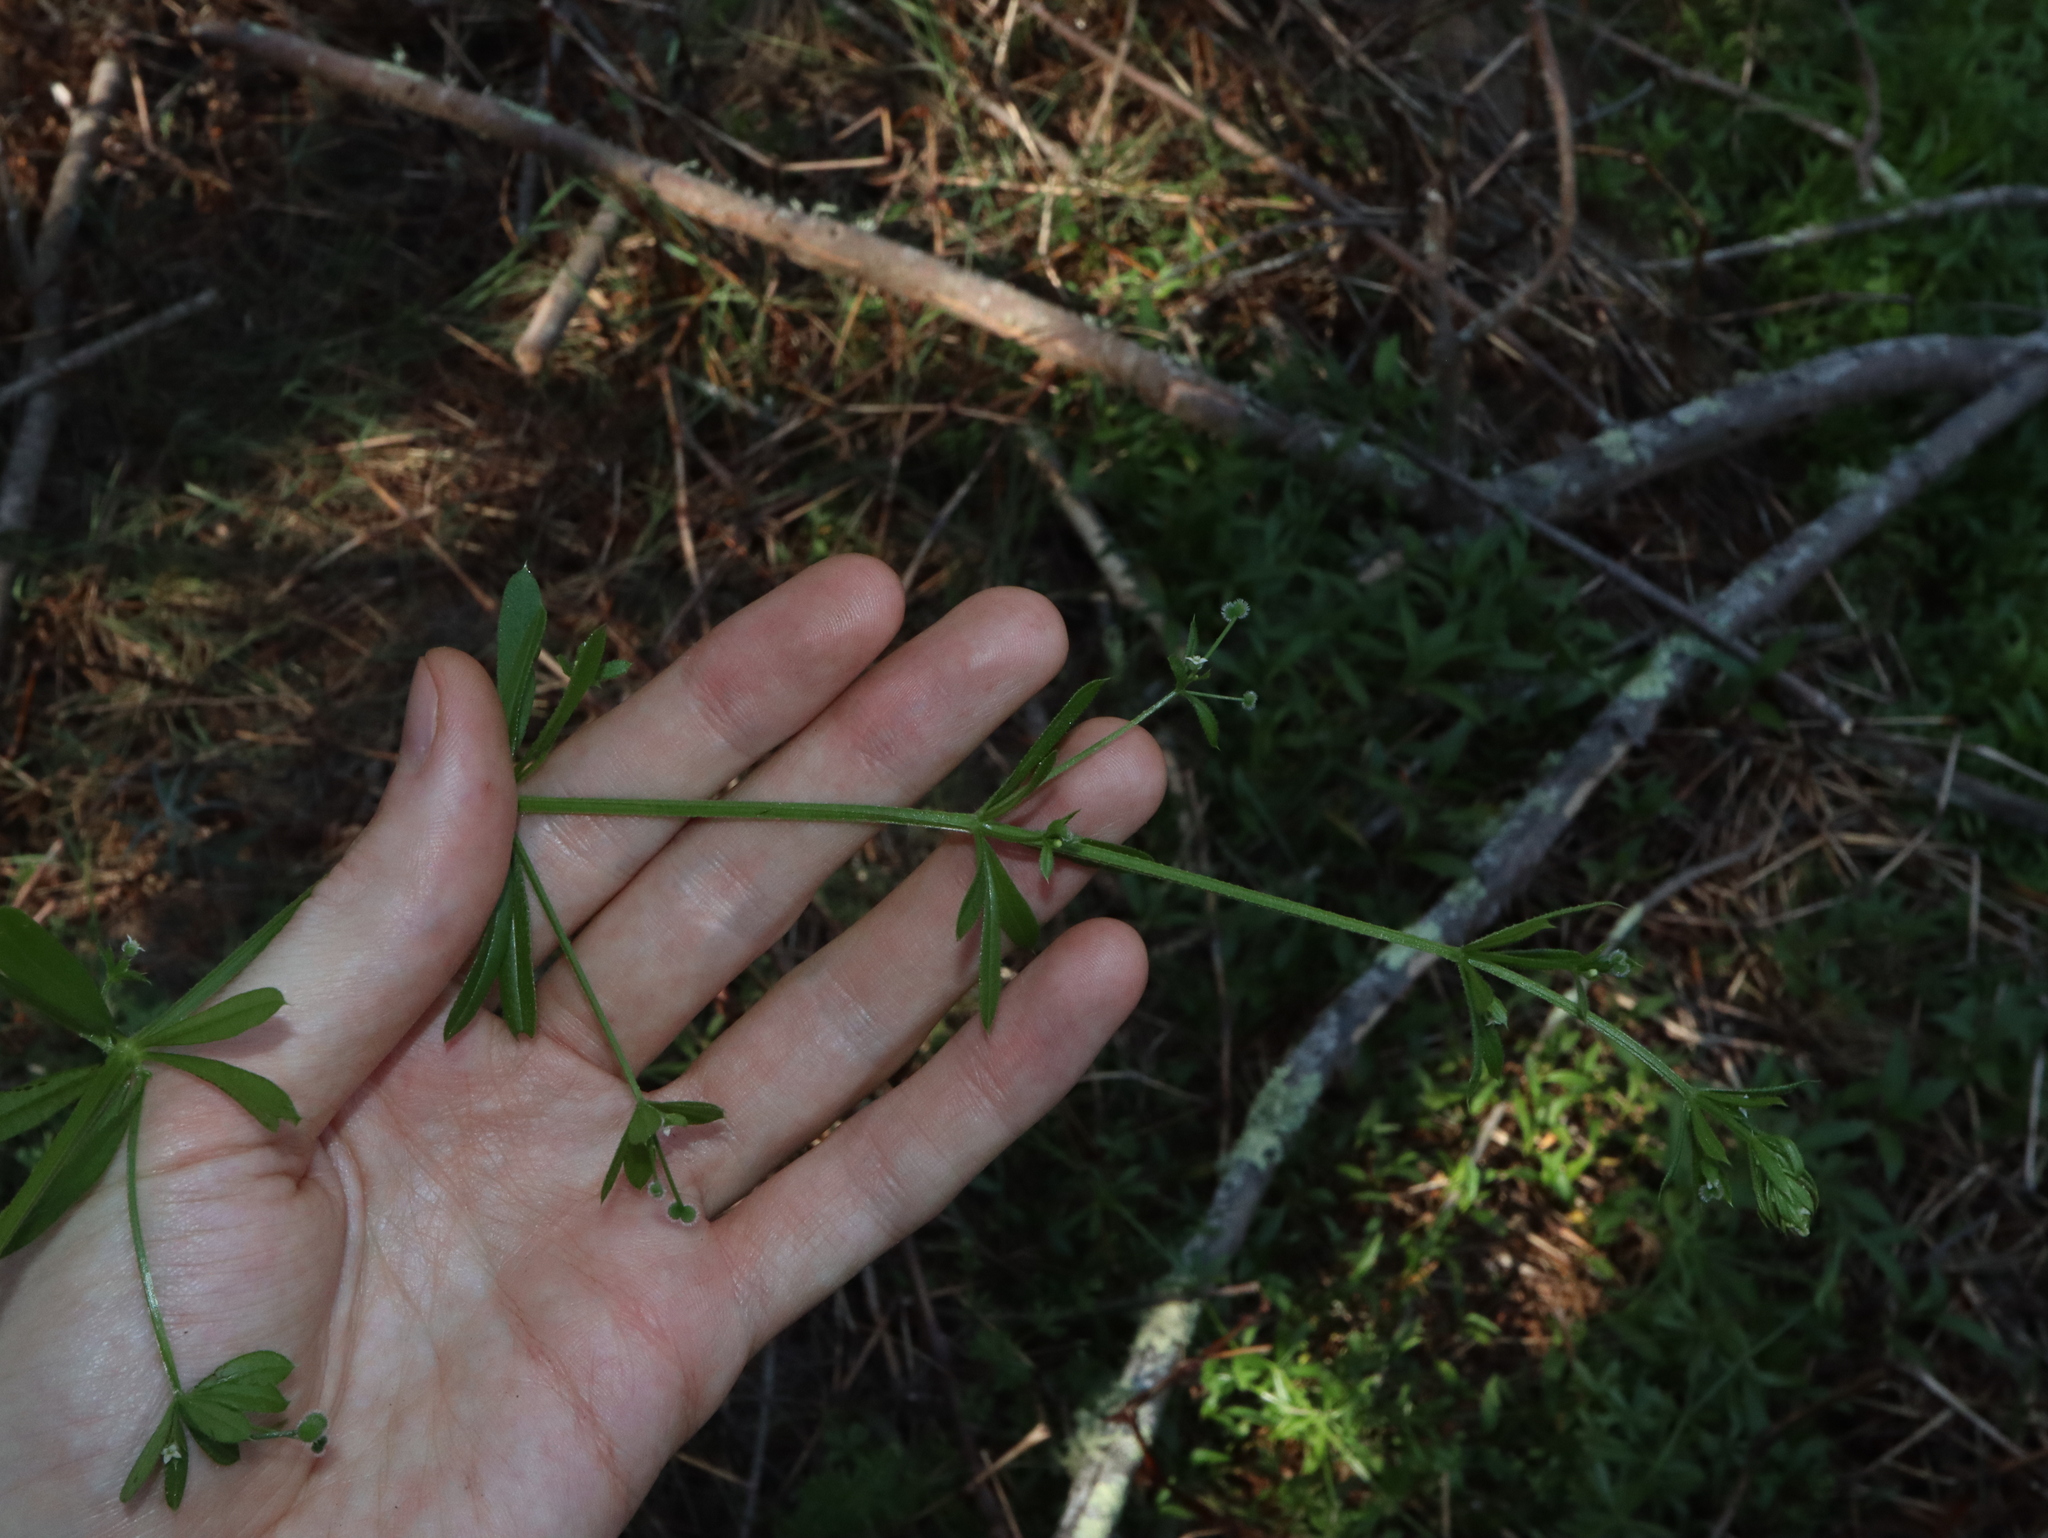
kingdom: Plantae
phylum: Tracheophyta
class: Magnoliopsida
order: Gentianales
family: Rubiaceae
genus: Galium
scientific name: Galium aparine
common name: Cleavers
